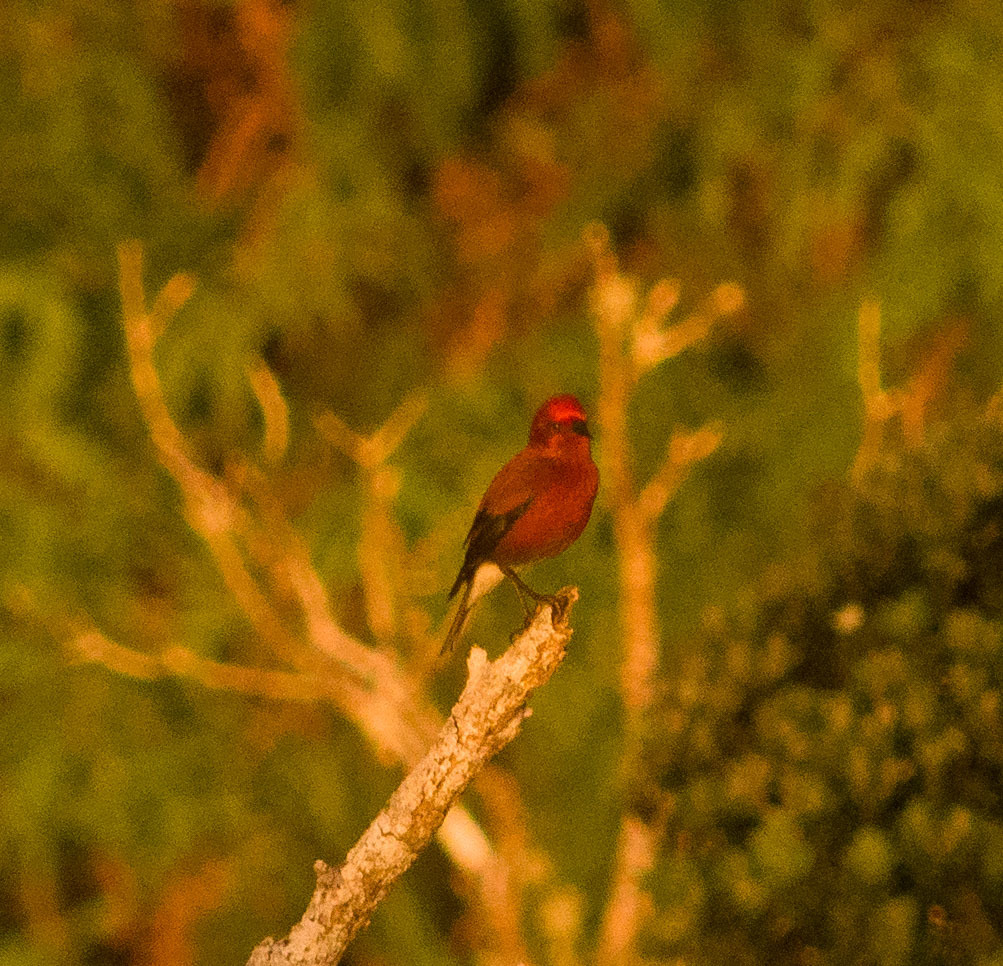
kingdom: Animalia
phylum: Chordata
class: Aves
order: Passeriformes
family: Fringillidae
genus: Himatione
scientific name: Himatione sanguinea
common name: Apapane
